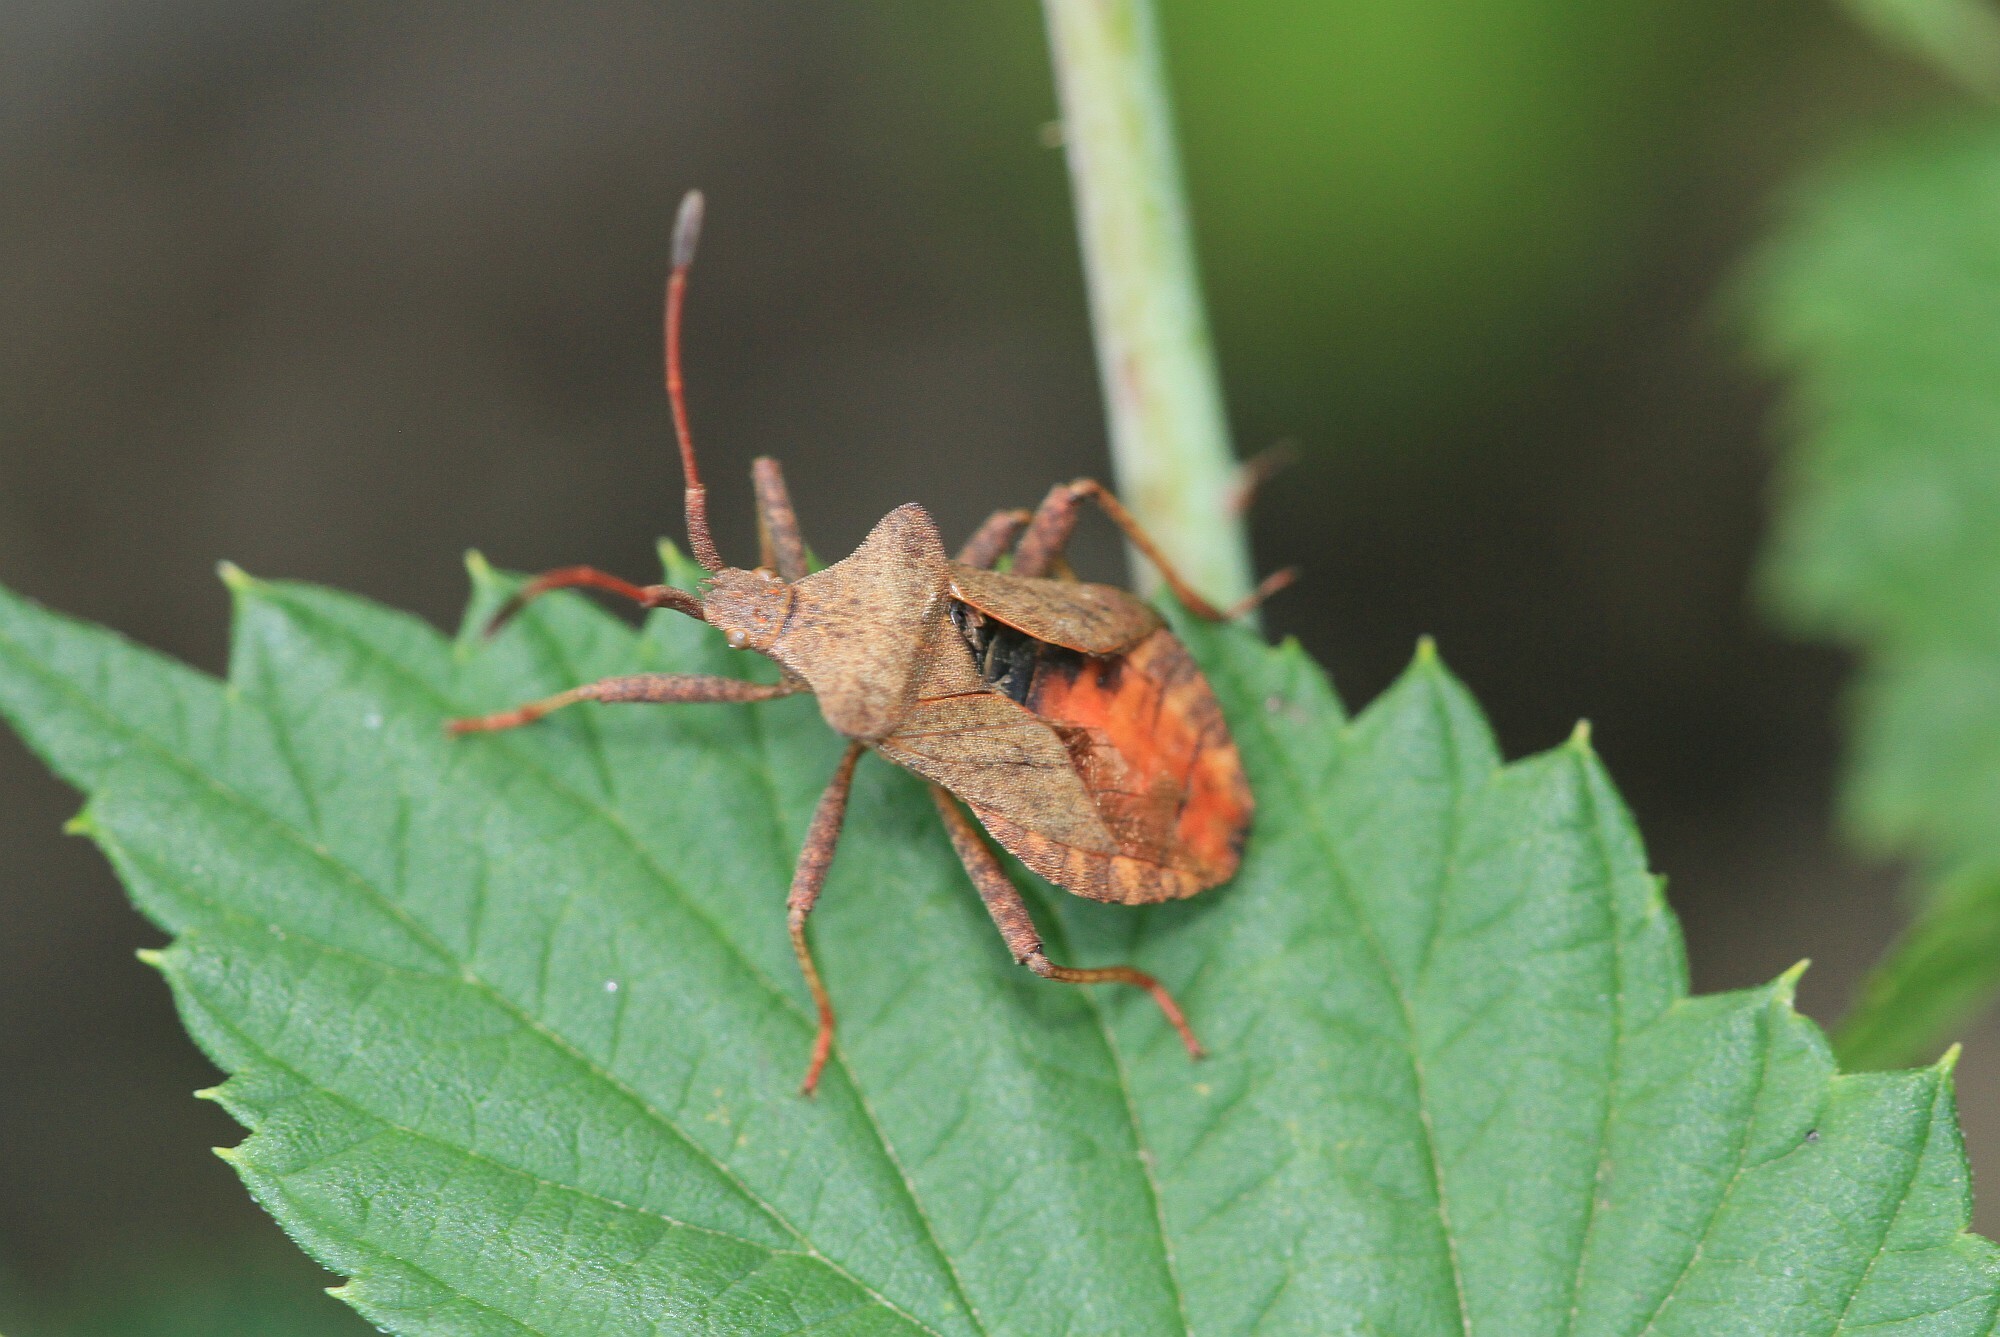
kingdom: Animalia
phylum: Arthropoda
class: Insecta
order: Hemiptera
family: Coreidae
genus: Coreus
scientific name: Coreus marginatus
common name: Dock bug
